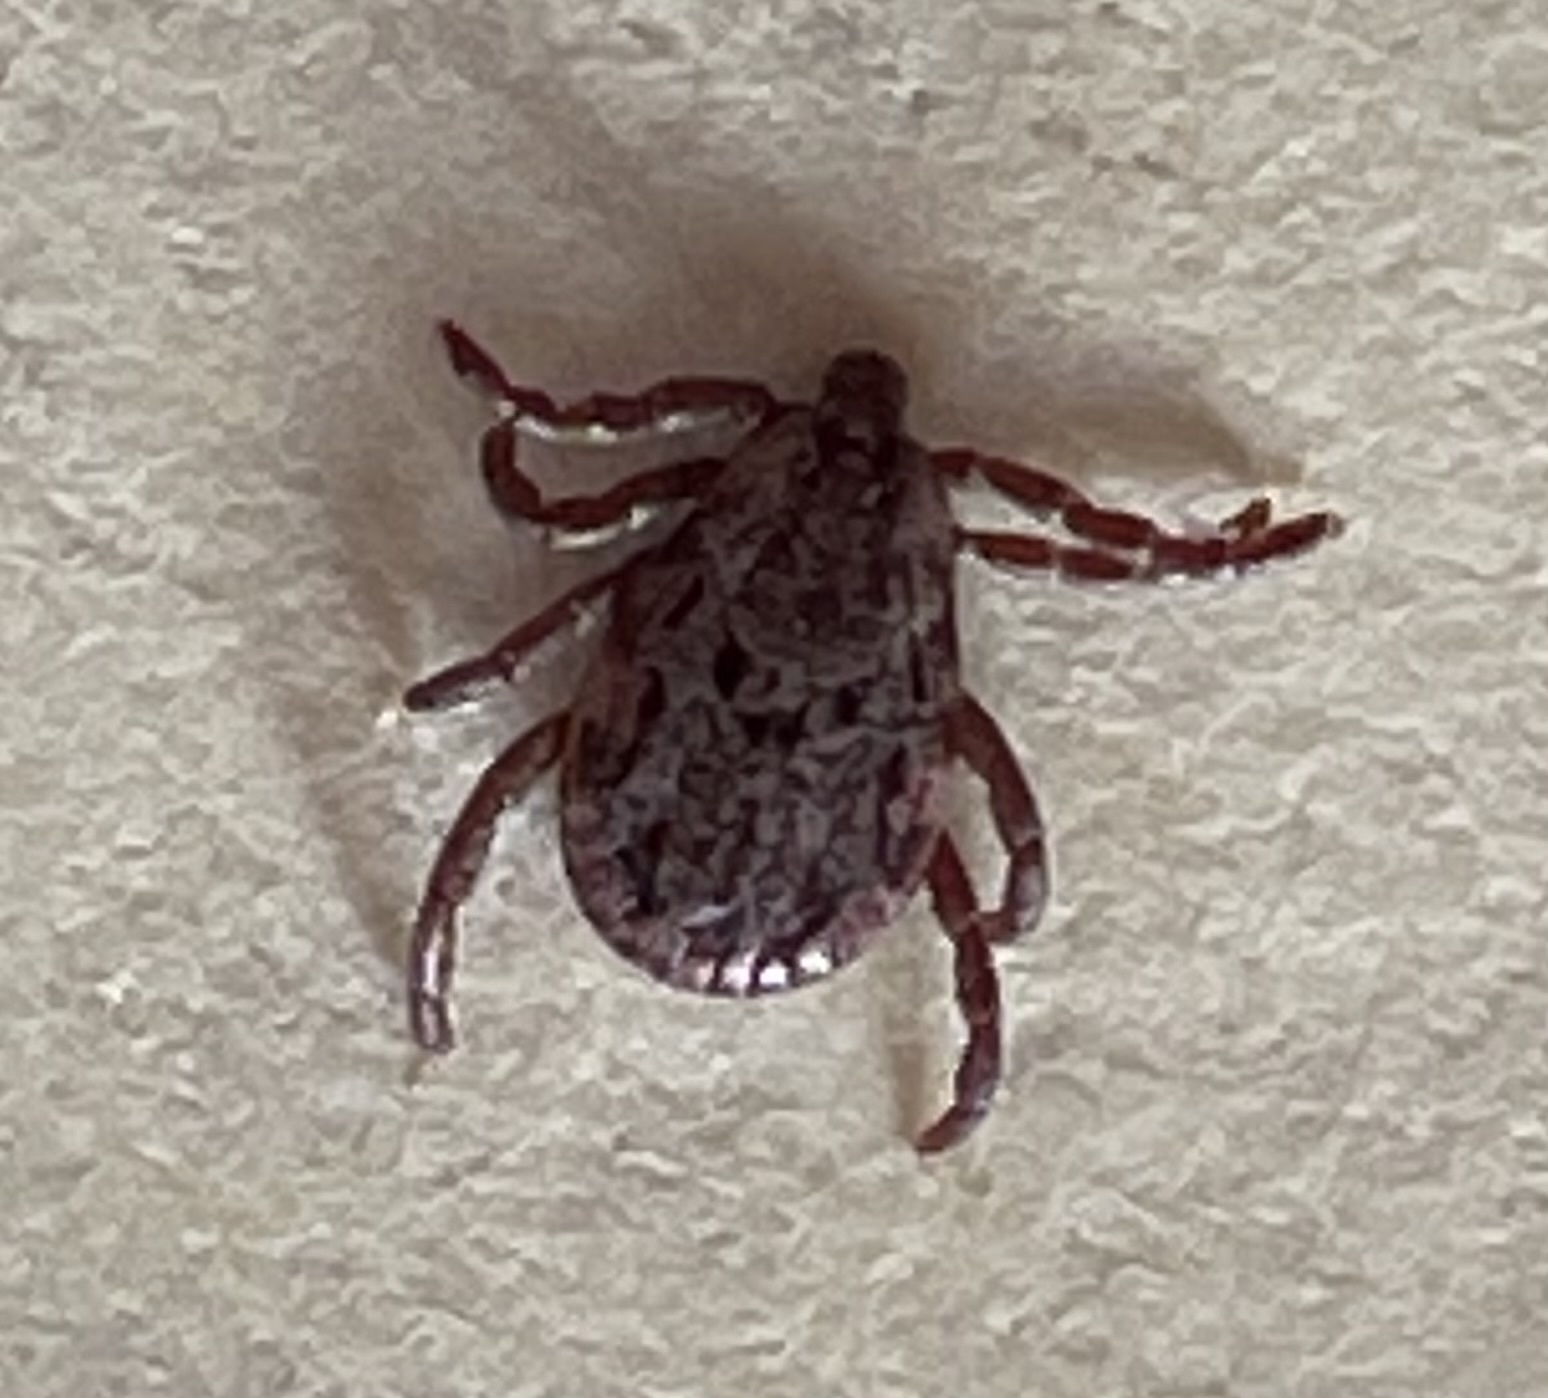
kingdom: Animalia
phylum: Arthropoda
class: Arachnida
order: Ixodida
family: Ixodidae
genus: Dermacentor
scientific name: Dermacentor occidentalis
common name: Net tick
